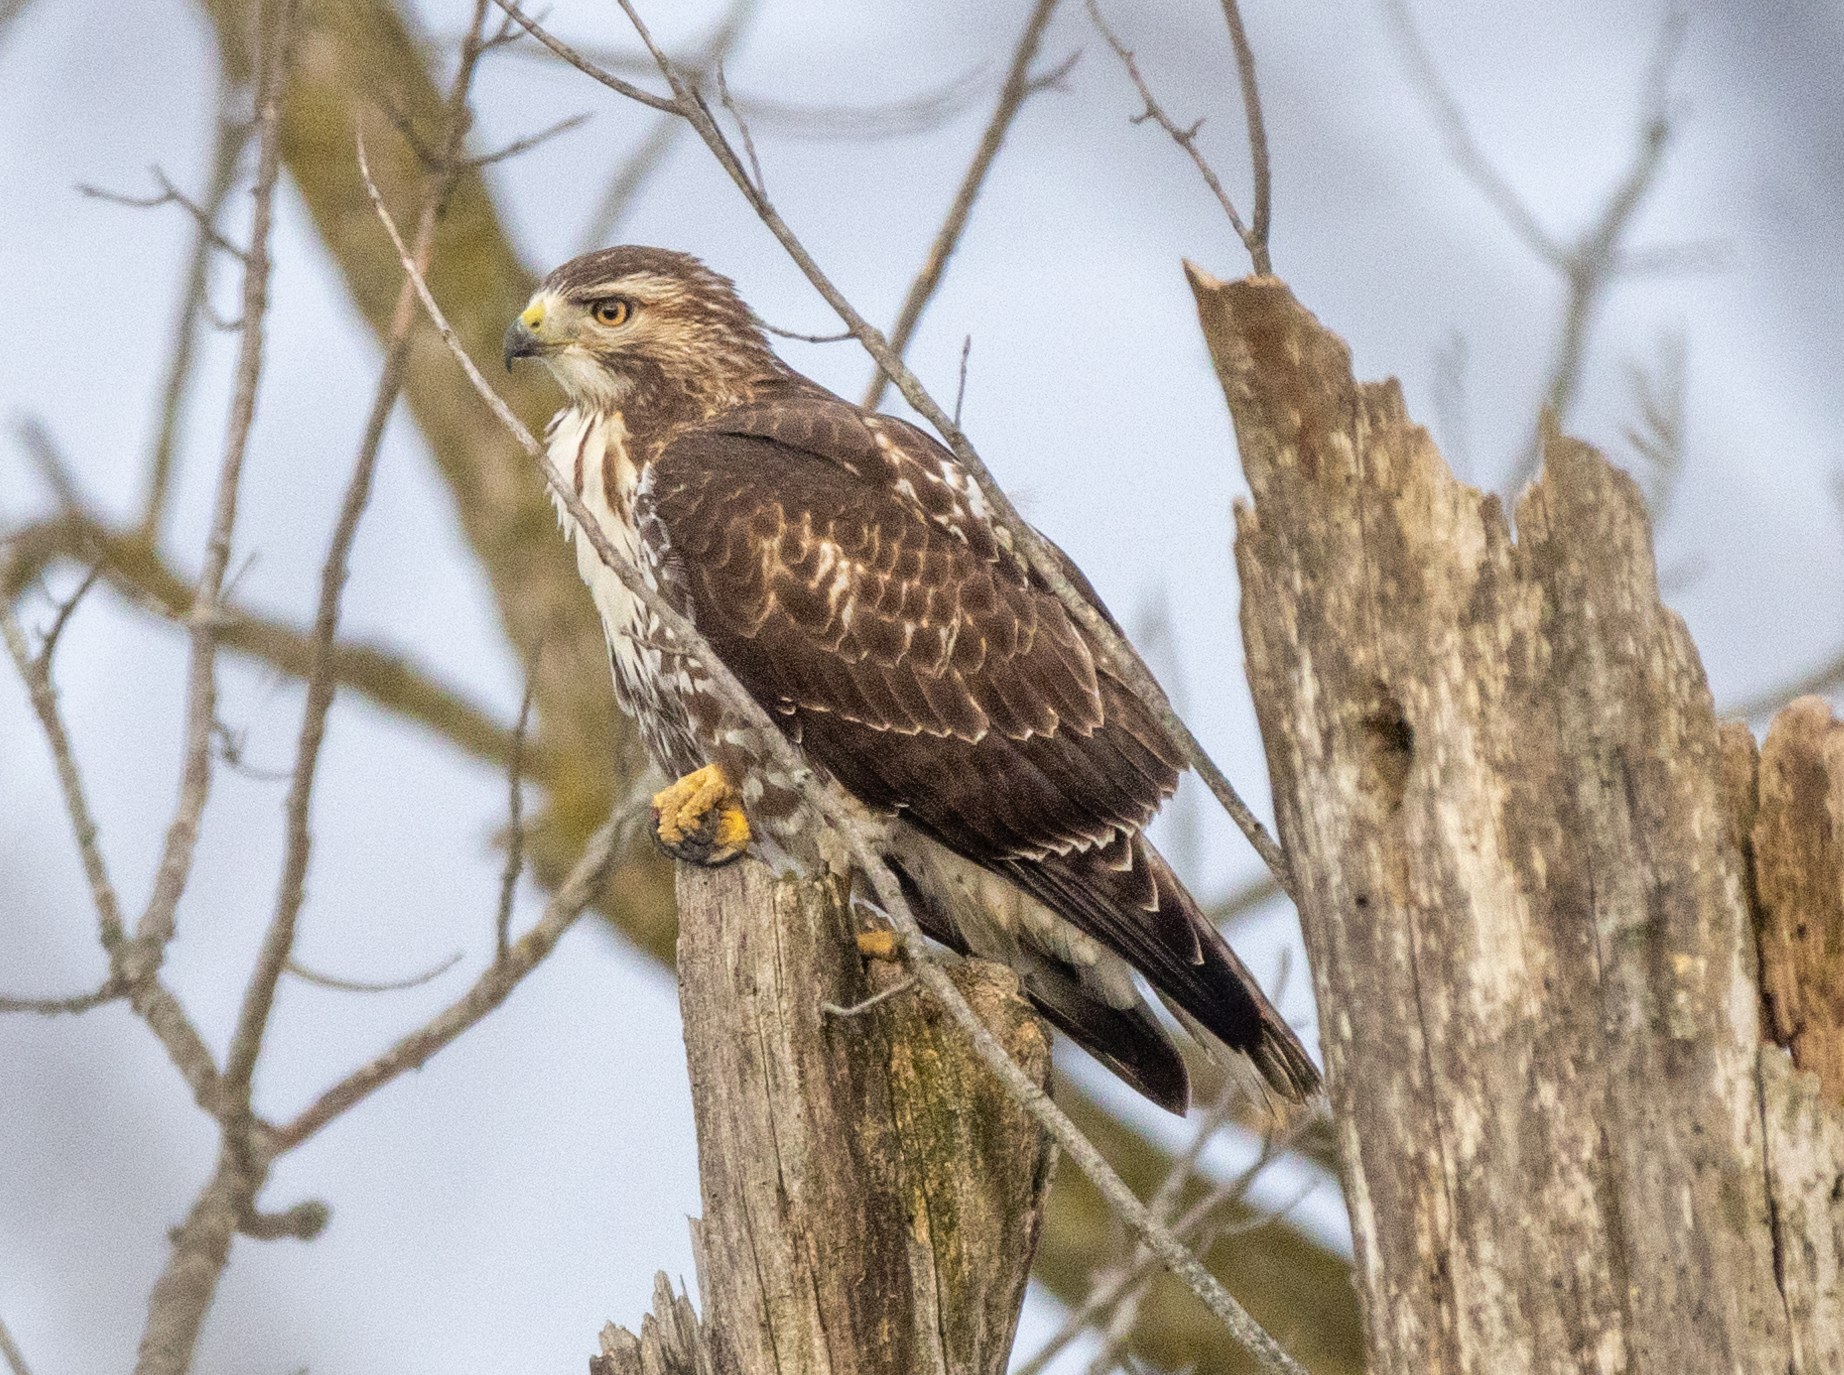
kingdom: Animalia
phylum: Chordata
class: Aves
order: Accipitriformes
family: Accipitridae
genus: Buteo
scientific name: Buteo jamaicensis
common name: Red-tailed hawk
